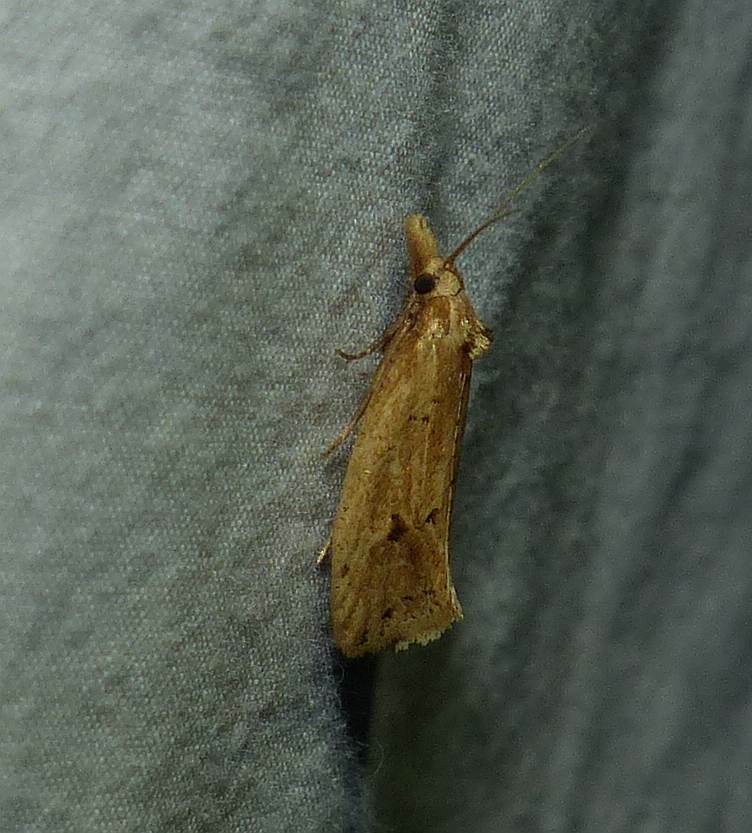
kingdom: Animalia
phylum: Arthropoda
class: Insecta
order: Lepidoptera
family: Tortricidae
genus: Aethes
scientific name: Aethes atomosana
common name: Two-spotted aethes
